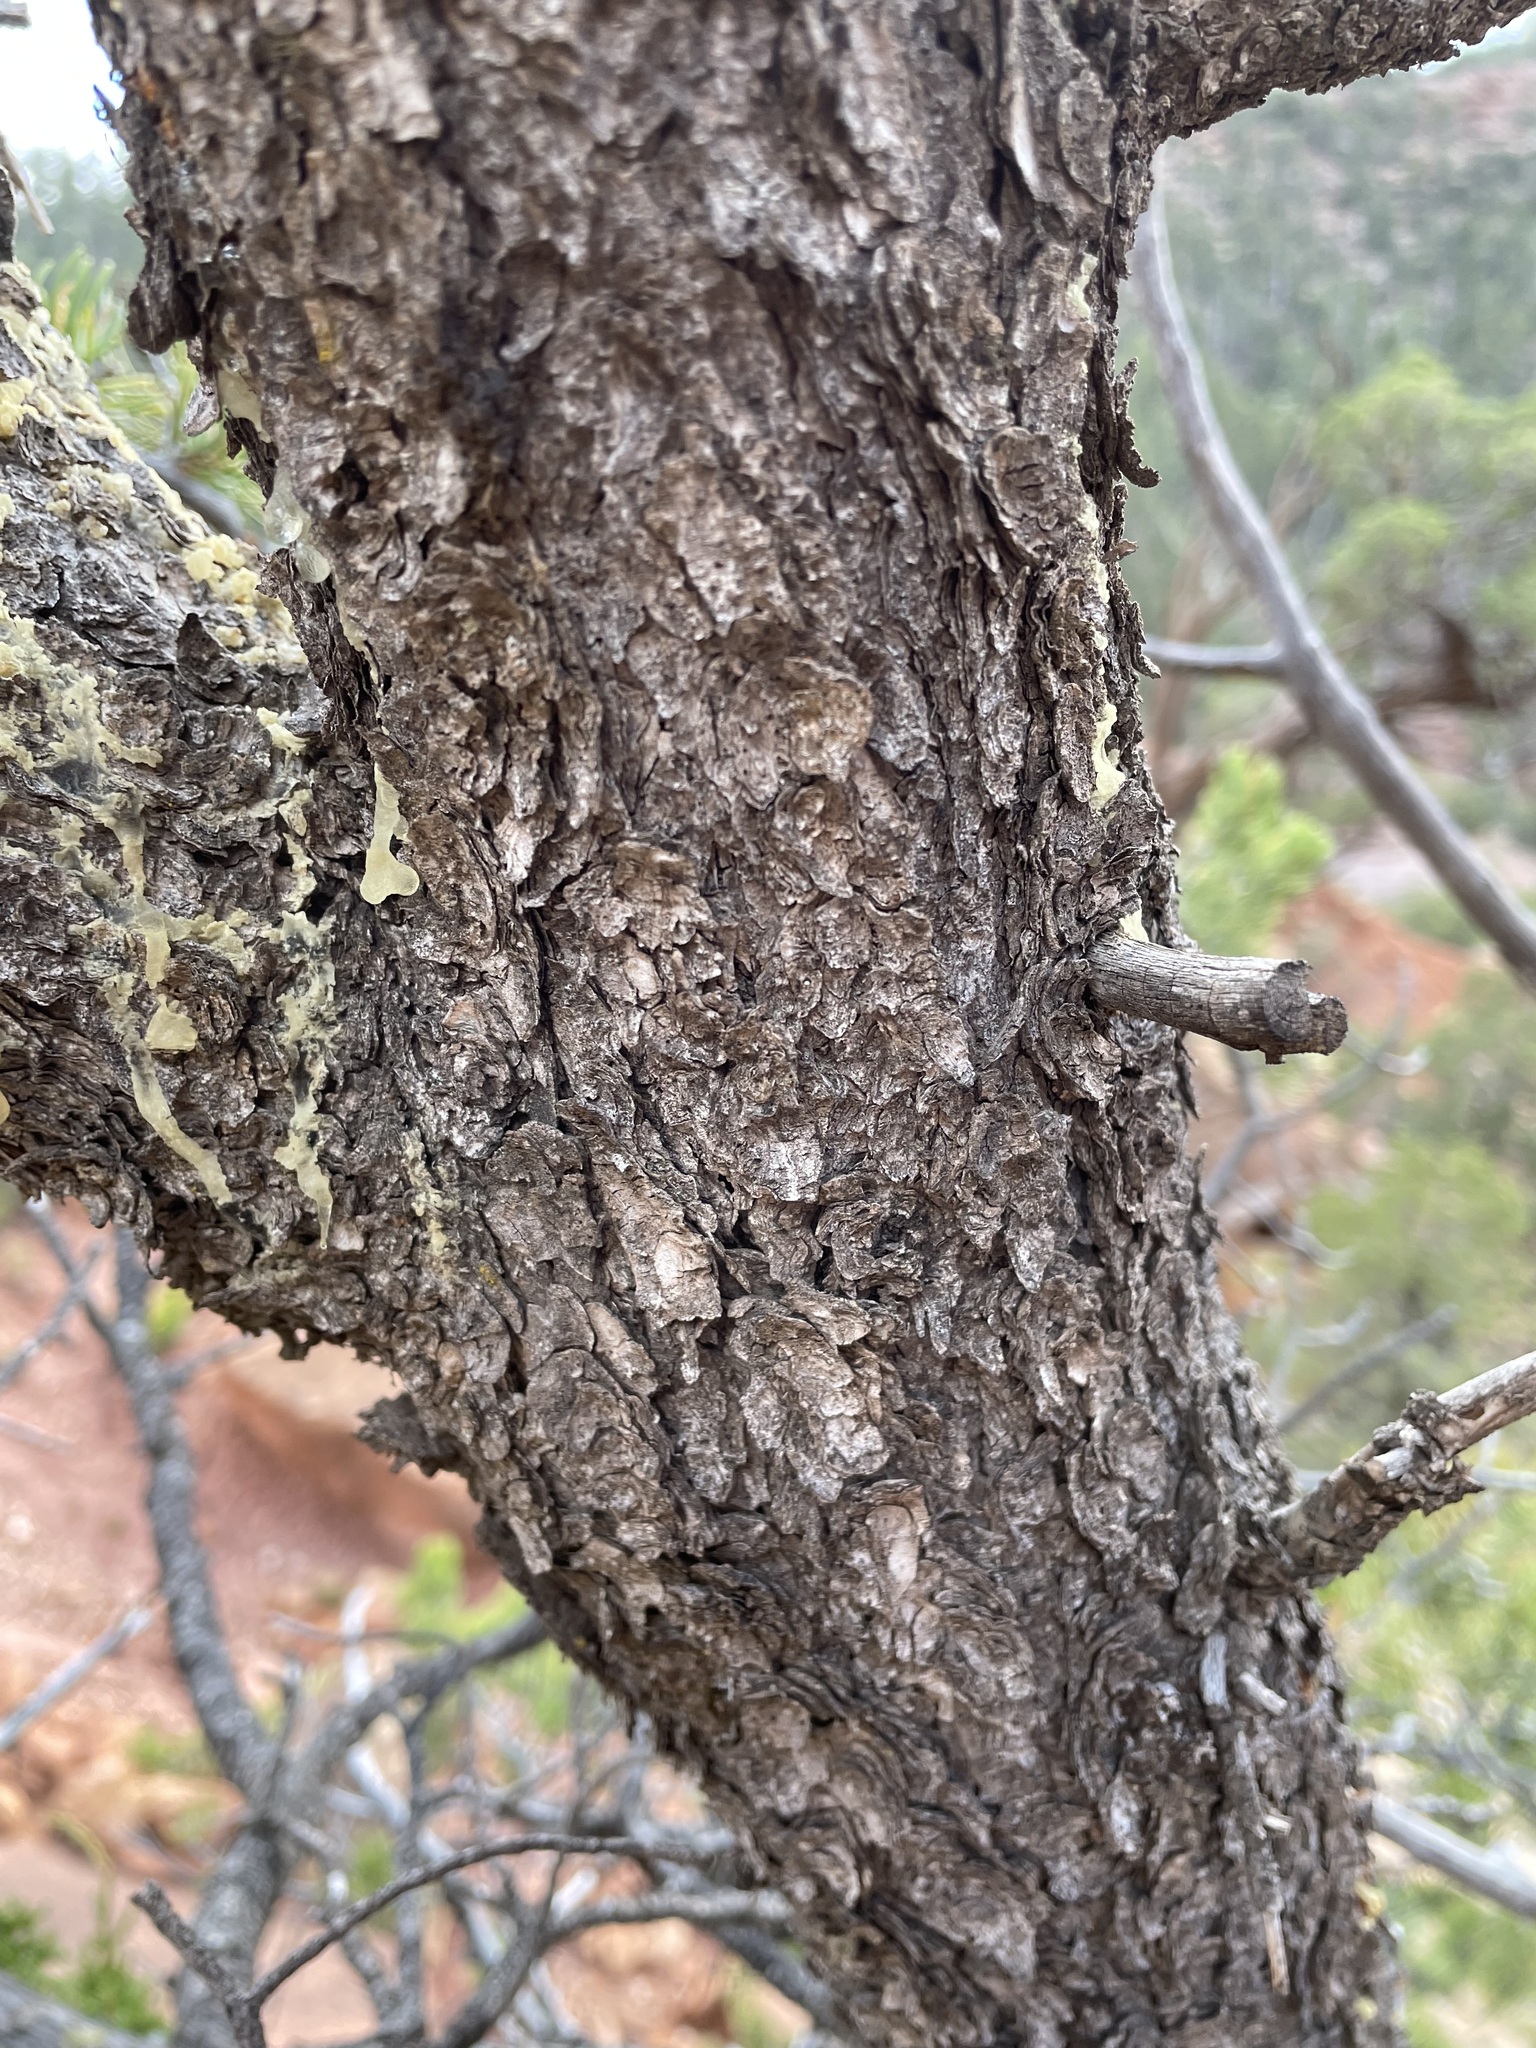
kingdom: Plantae
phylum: Tracheophyta
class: Pinopsida
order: Pinales
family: Pinaceae
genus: Pinus
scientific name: Pinus edulis
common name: Colorado pinyon
